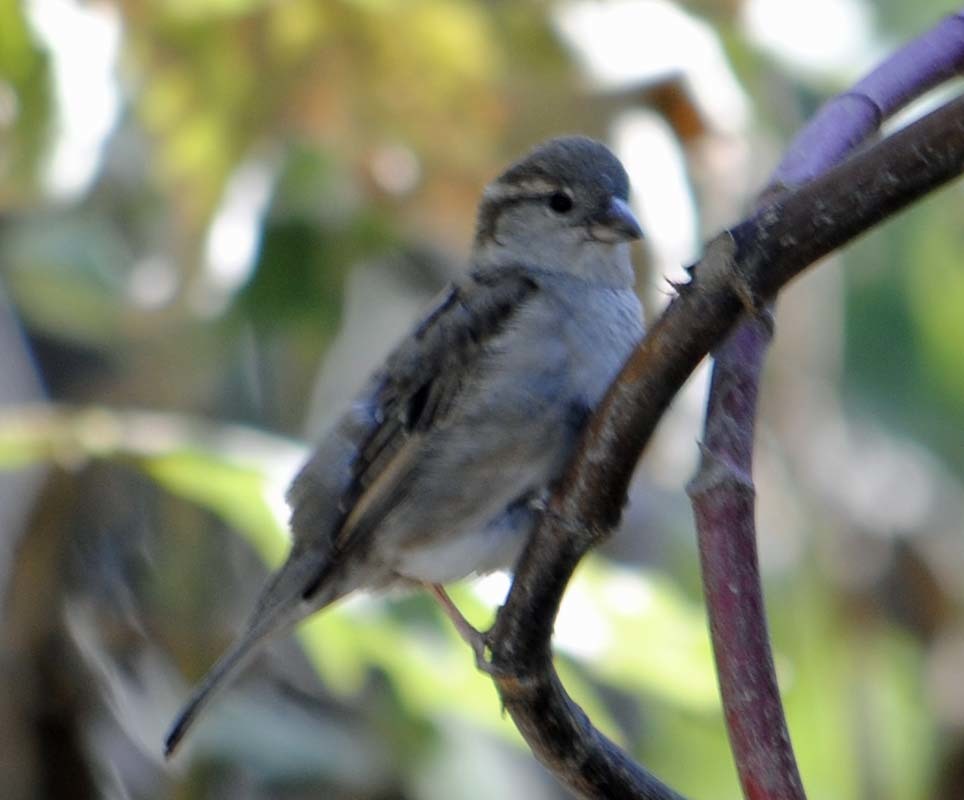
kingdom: Animalia
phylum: Chordata
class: Aves
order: Passeriformes
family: Passeridae
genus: Passer
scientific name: Passer domesticus
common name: House sparrow
